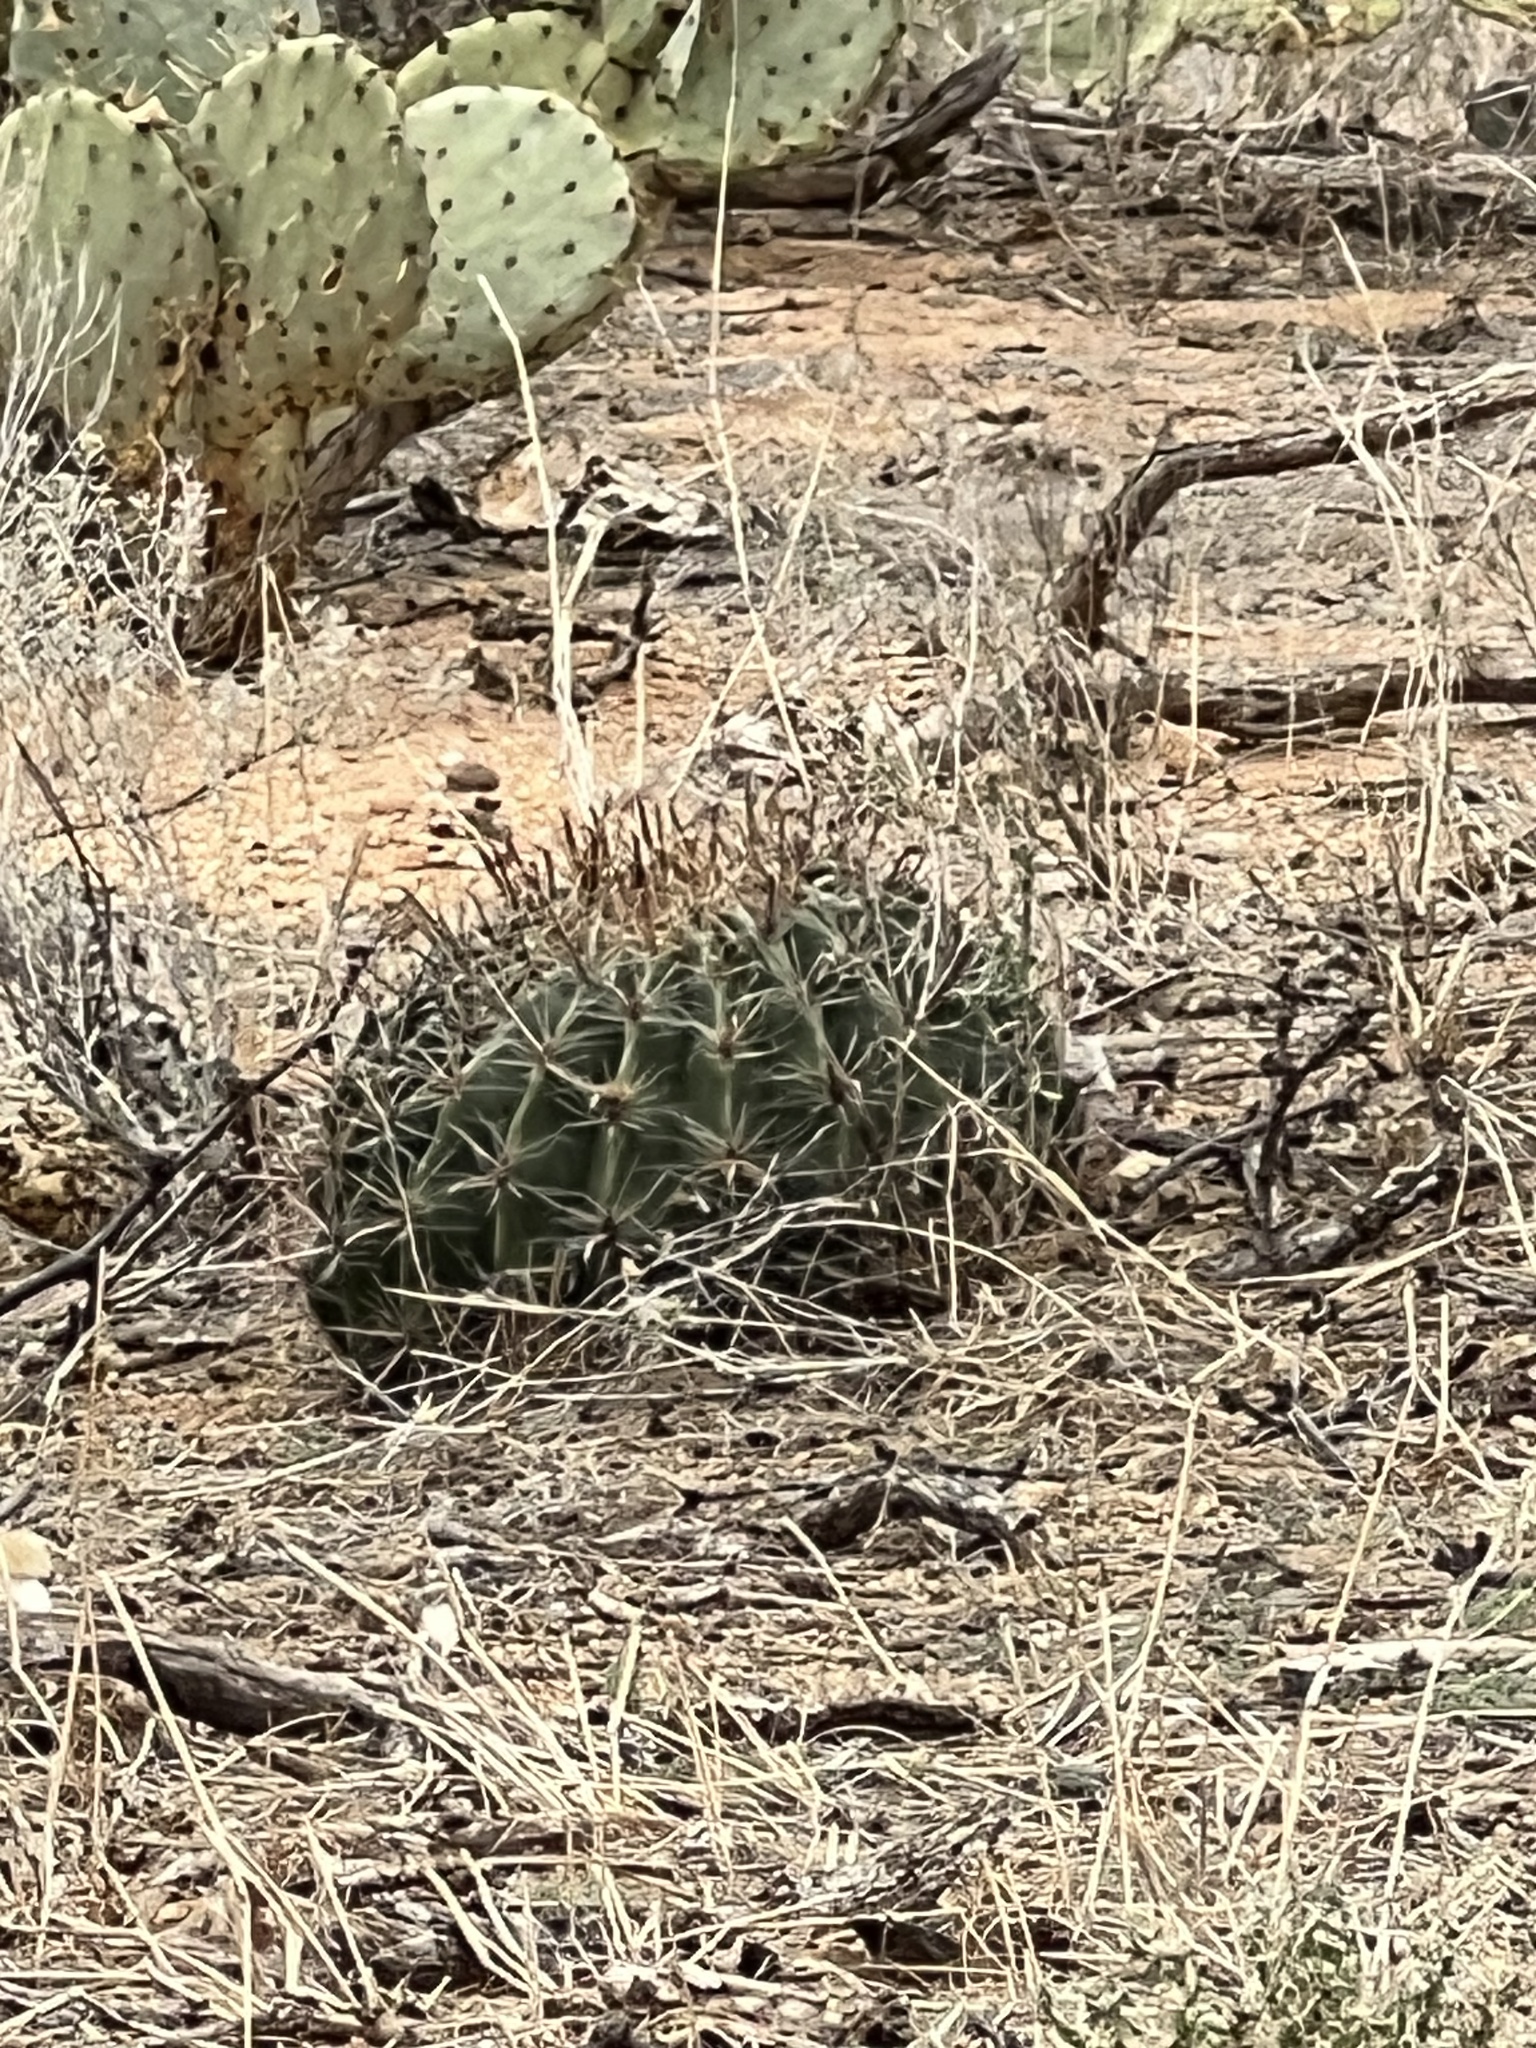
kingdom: Plantae
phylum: Tracheophyta
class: Magnoliopsida
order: Caryophyllales
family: Cactaceae
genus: Ferocactus
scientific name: Ferocactus wislizeni
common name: Candy barrel cactus
